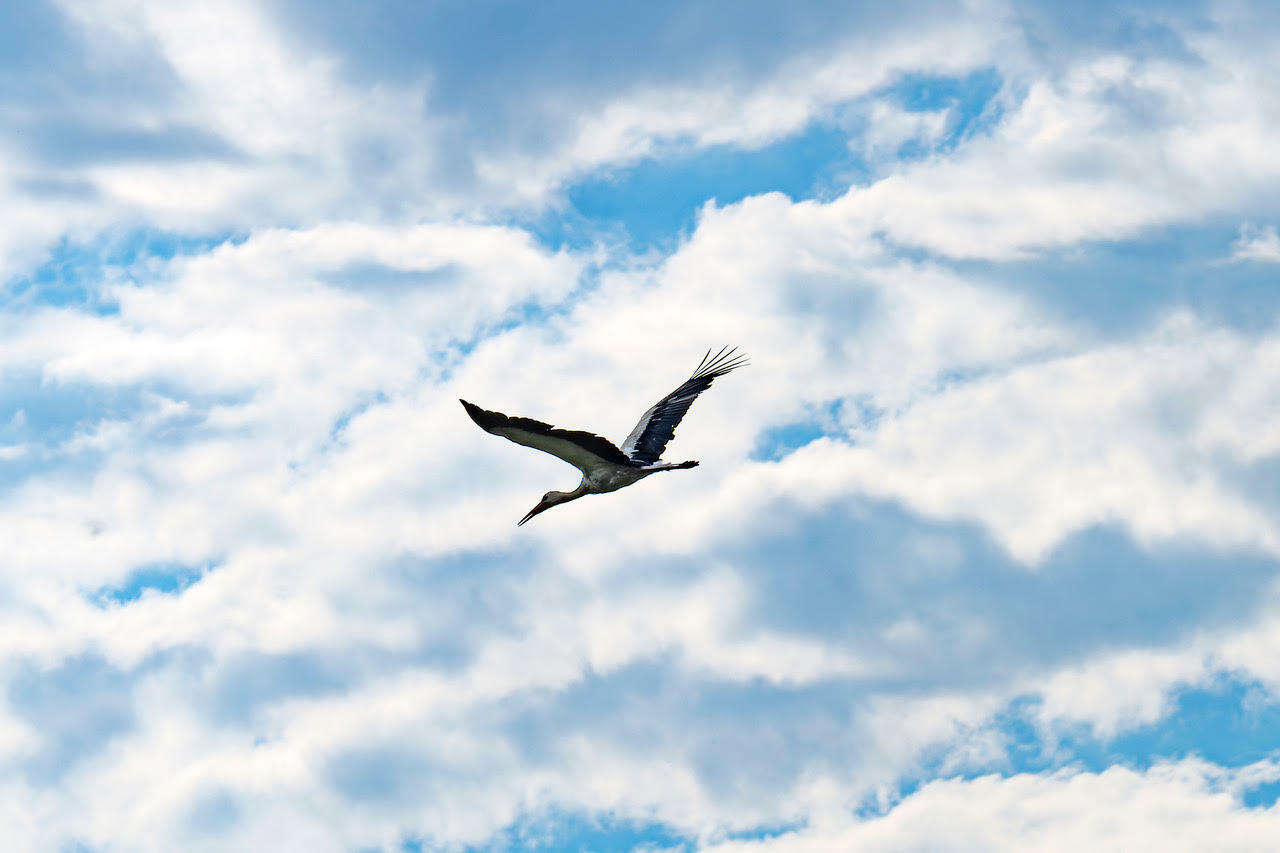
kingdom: Animalia
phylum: Chordata
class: Aves
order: Ciconiiformes
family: Ciconiidae
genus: Ciconia
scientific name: Ciconia ciconia
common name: White stork
